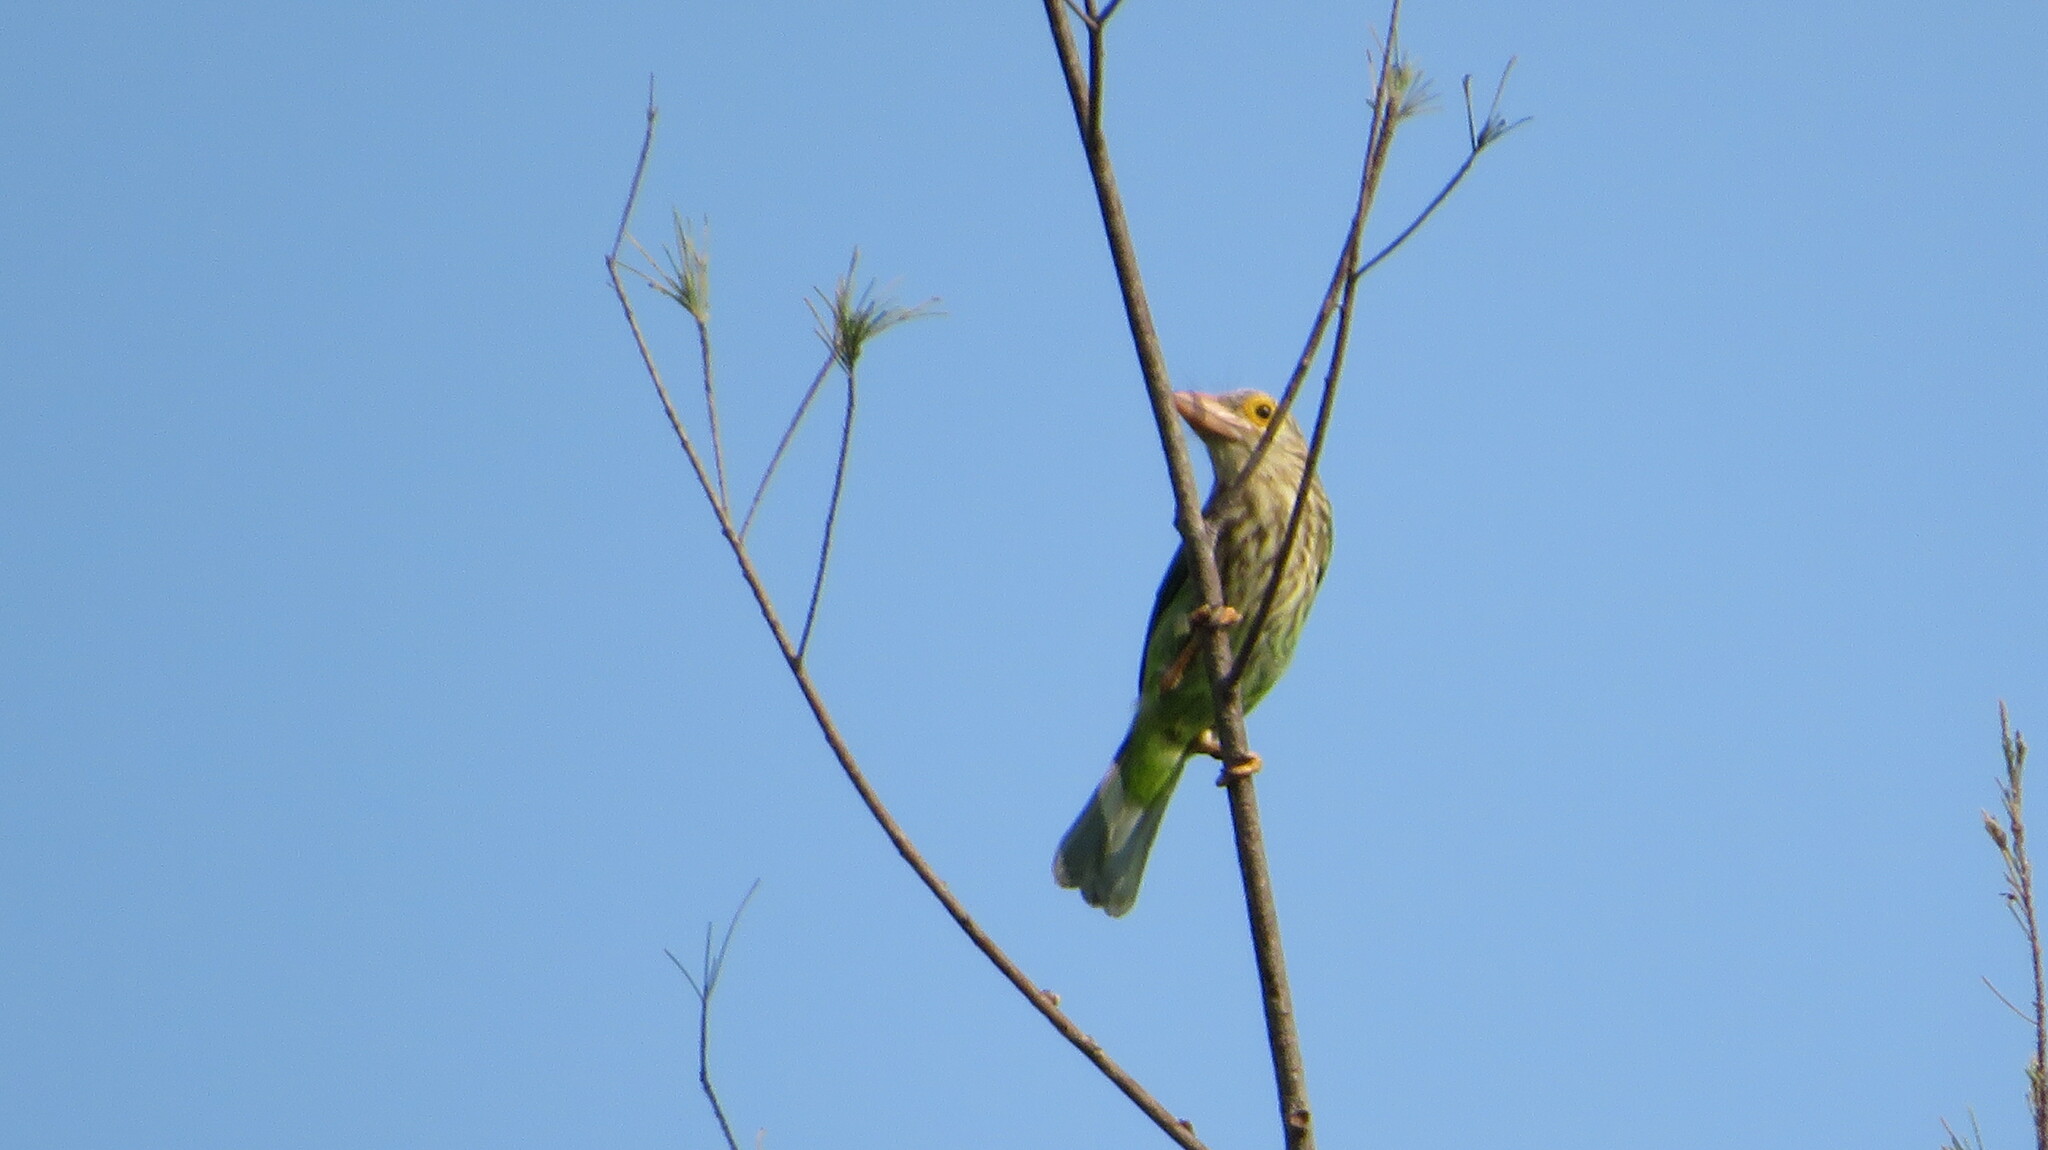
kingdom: Animalia
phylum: Chordata
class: Aves
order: Piciformes
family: Megalaimidae
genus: Psilopogon
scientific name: Psilopogon lineatus
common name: Lineated barbet
